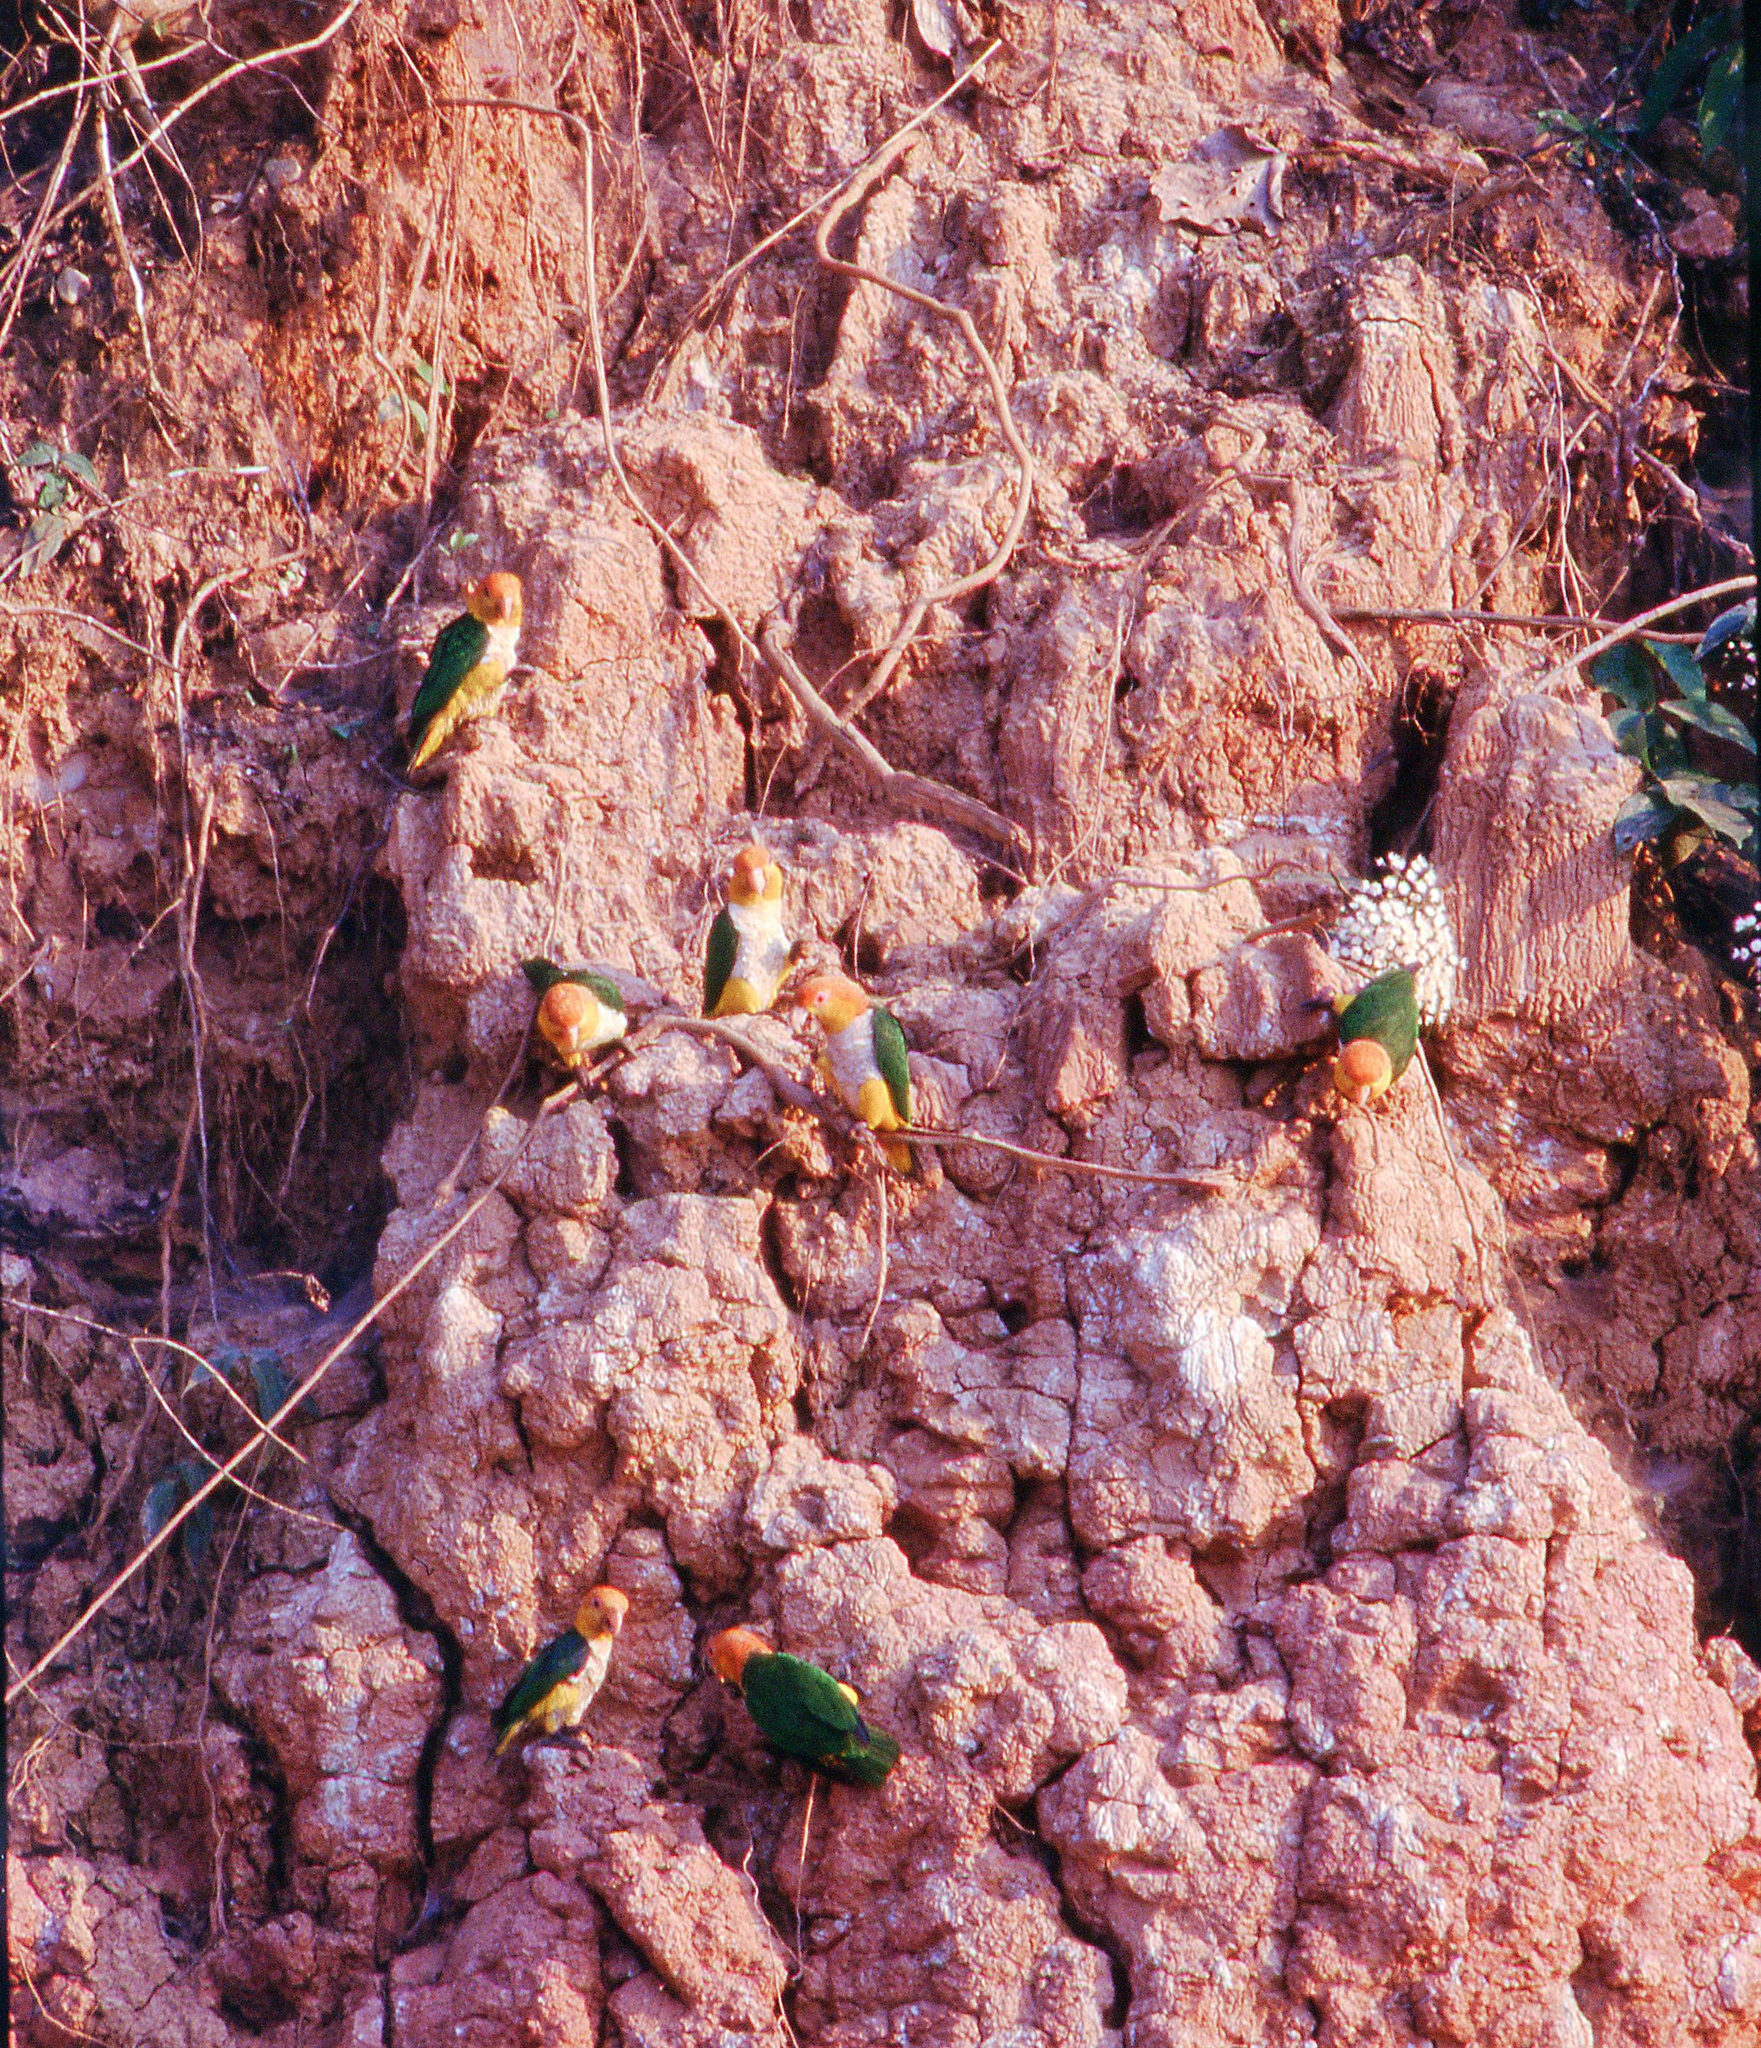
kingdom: Animalia
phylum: Chordata
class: Aves
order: Psittaciformes
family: Psittacidae
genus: Pionites
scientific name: Pionites leucogaster
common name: White-bellied parrot
